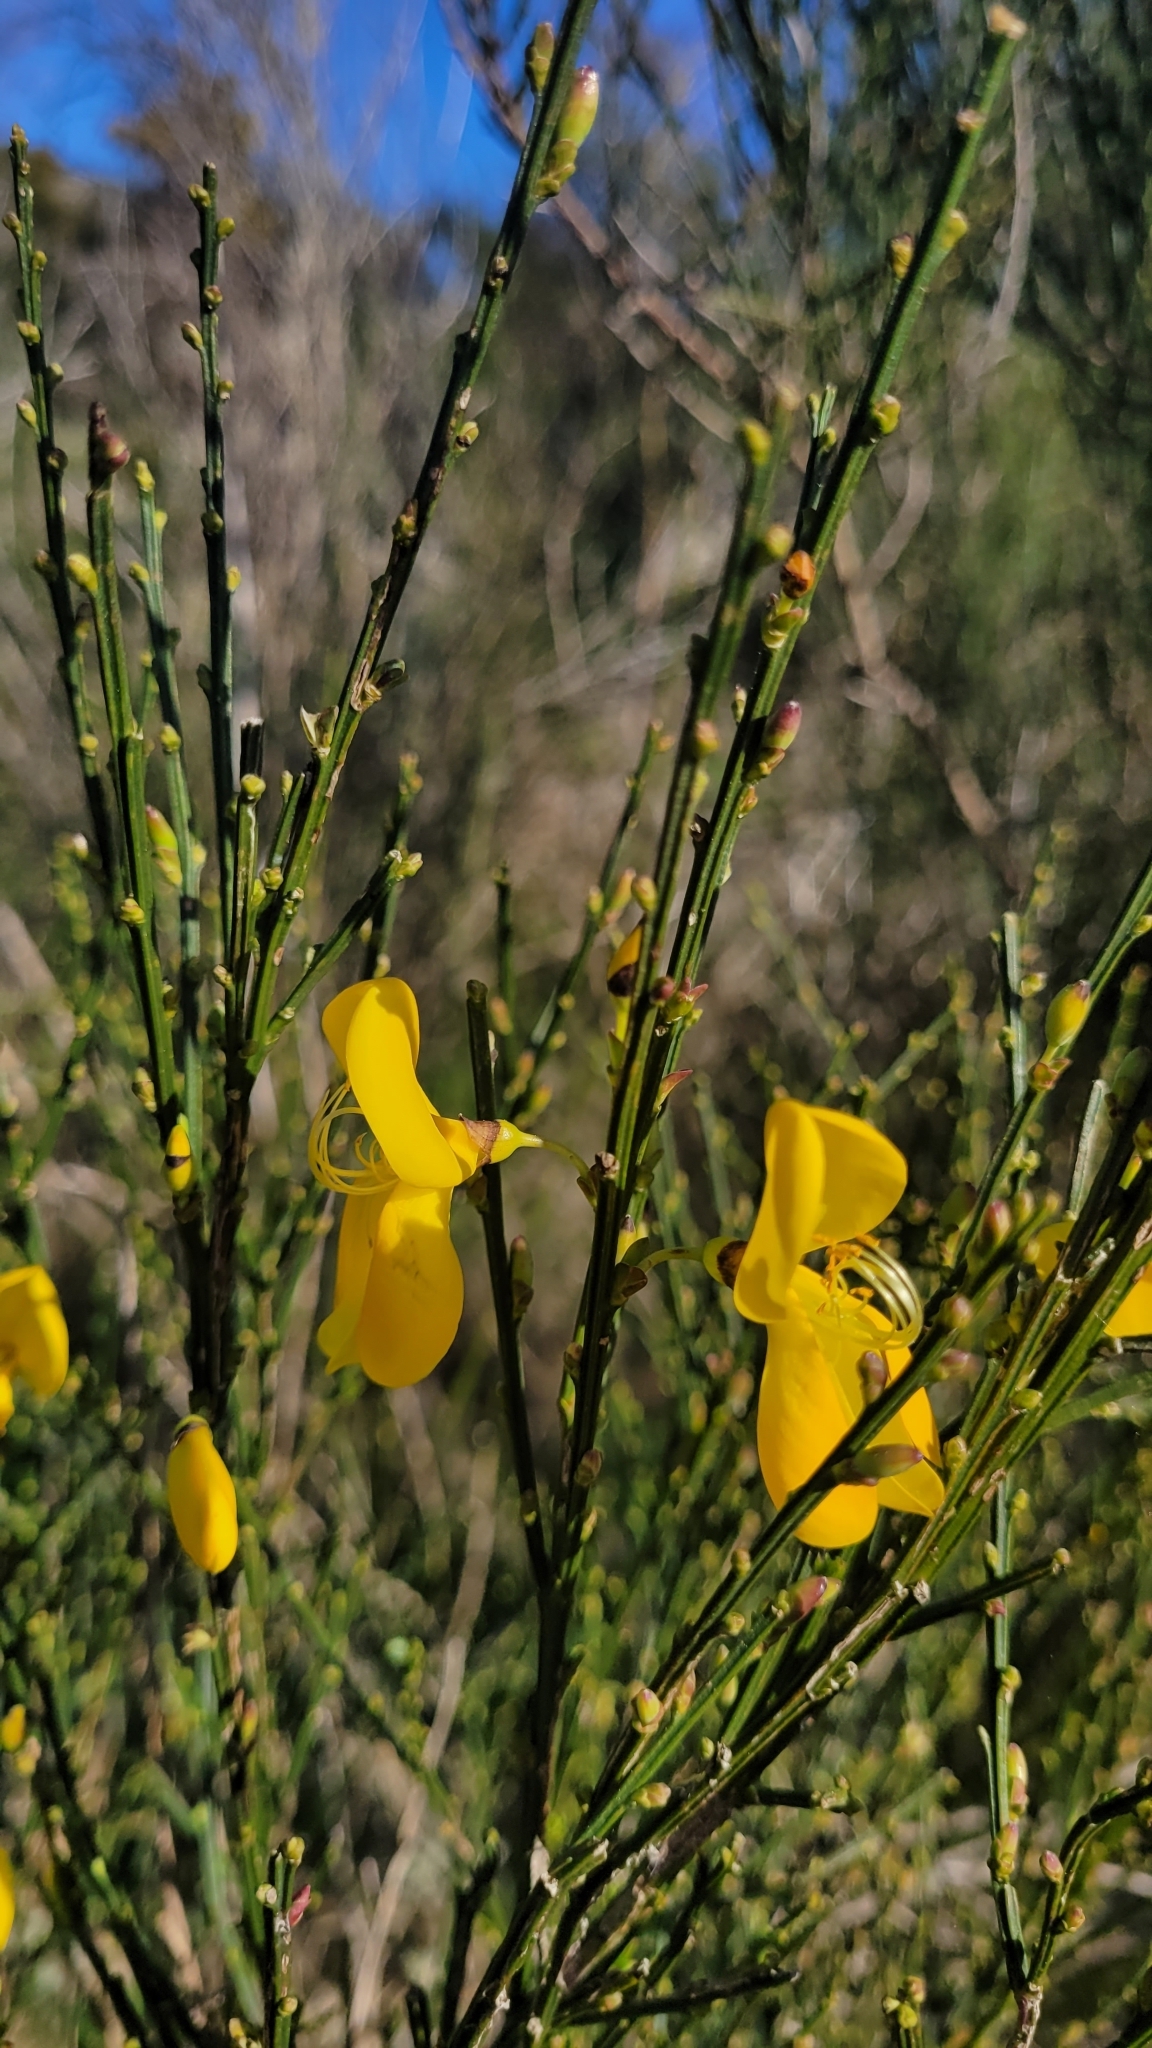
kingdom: Plantae
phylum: Tracheophyta
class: Magnoliopsida
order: Fabales
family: Fabaceae
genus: Cytisus
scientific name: Cytisus scoparius
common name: Scotch broom
